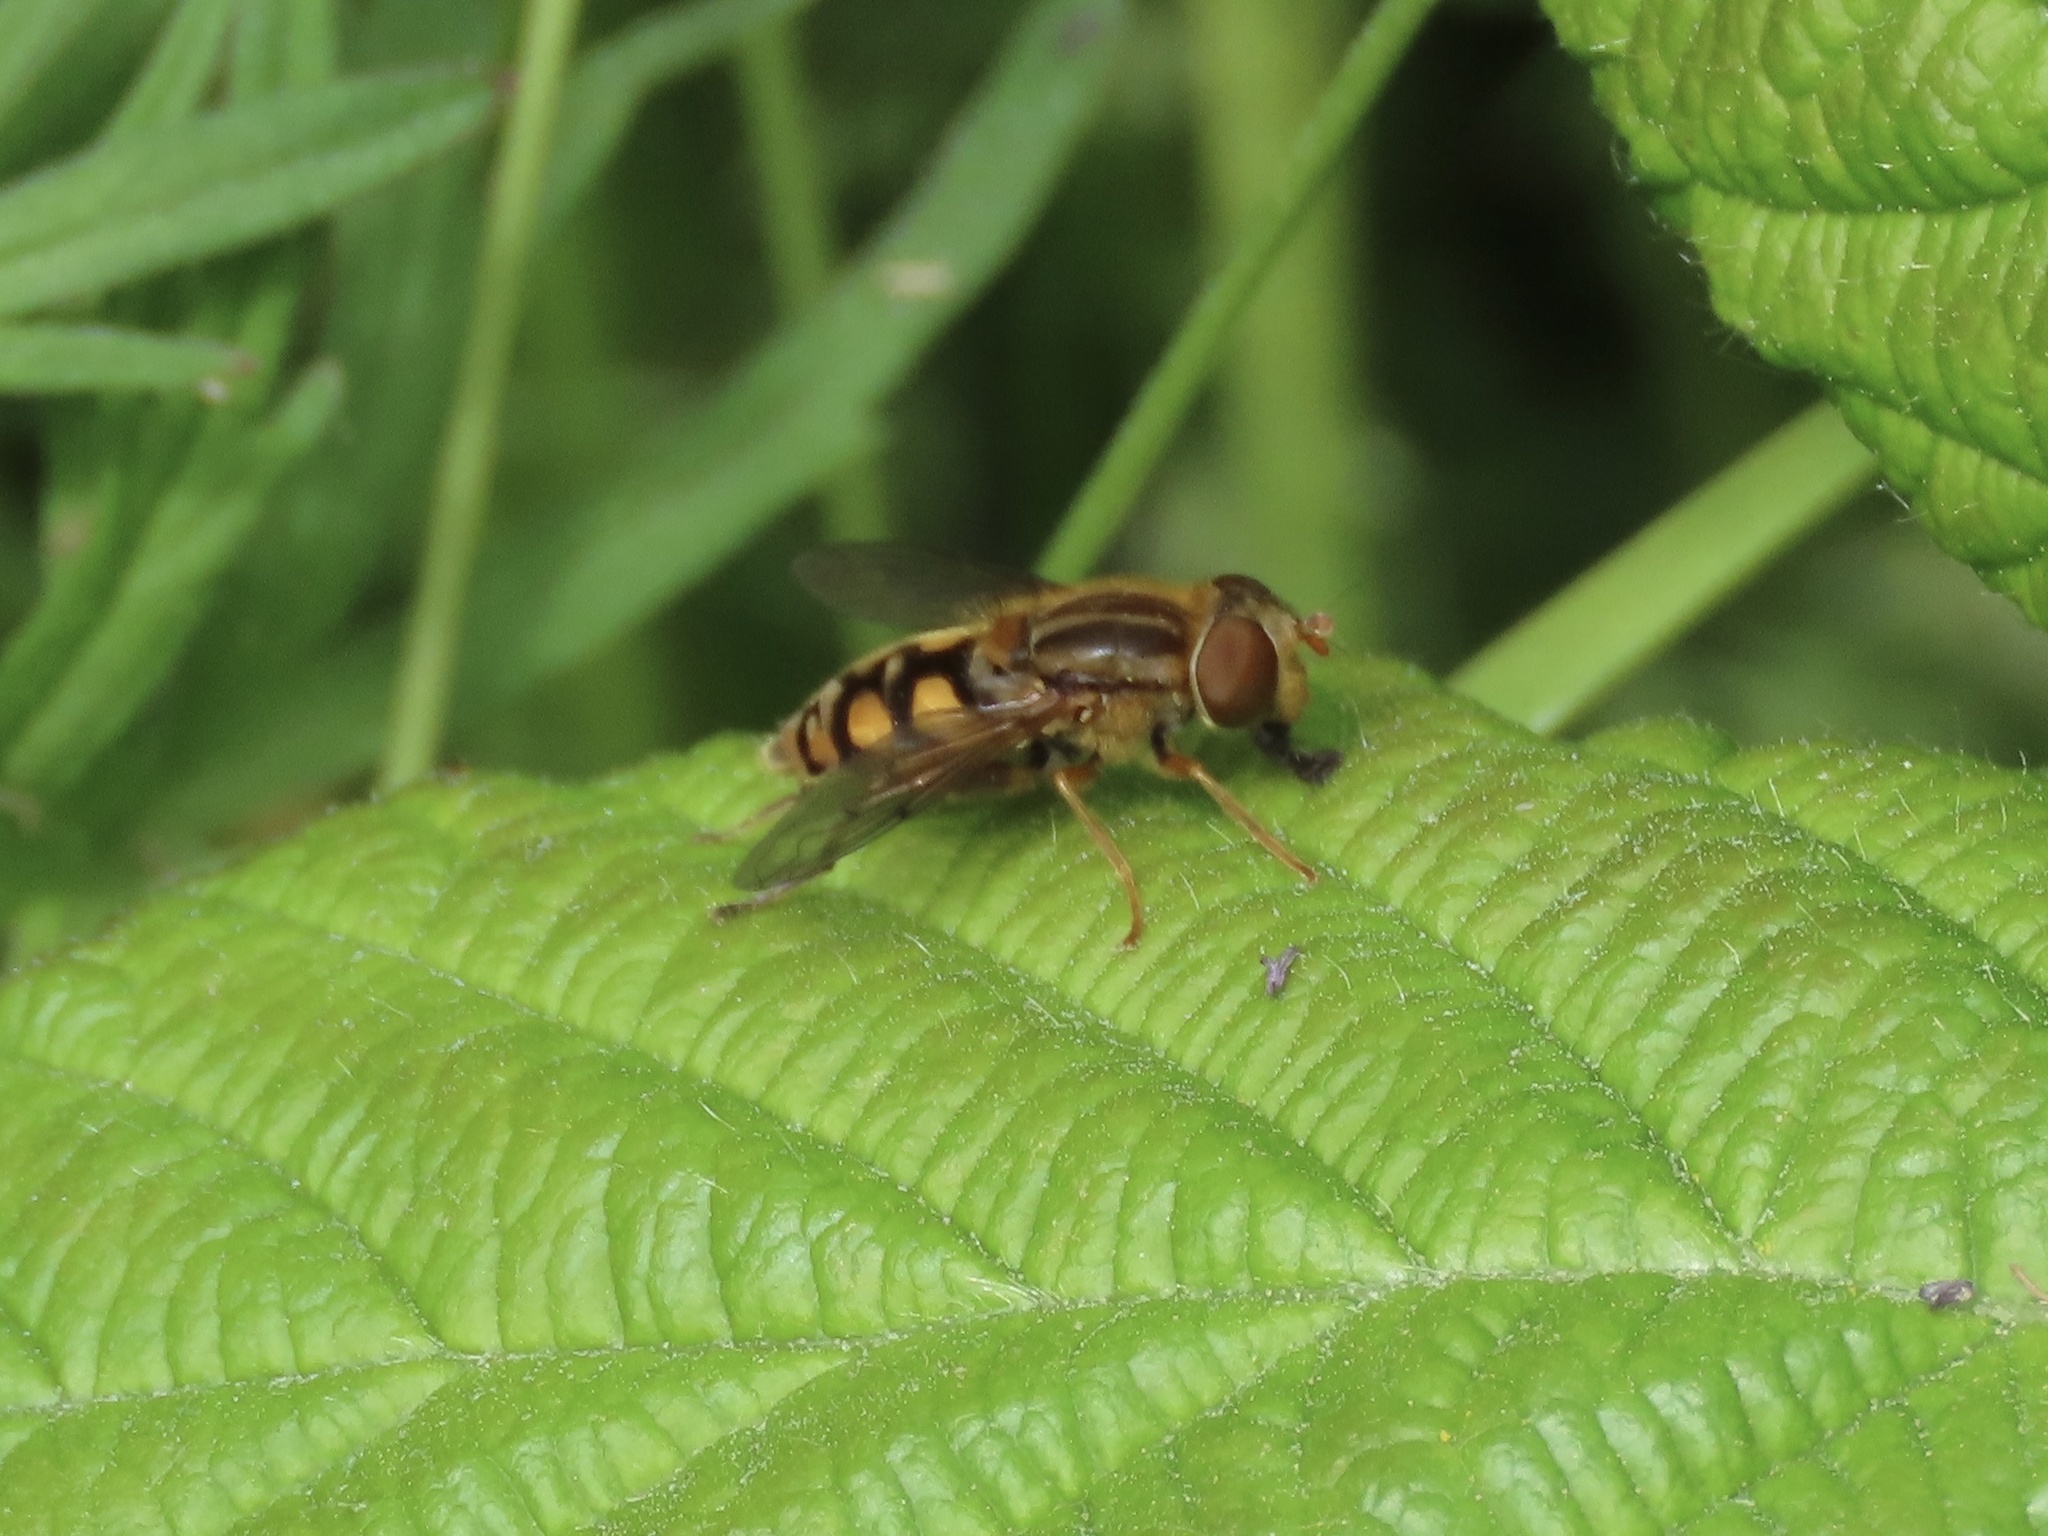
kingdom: Animalia
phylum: Arthropoda
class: Insecta
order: Diptera
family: Syrphidae
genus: Parhelophilus
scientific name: Parhelophilus laetus
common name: Common bog fly
